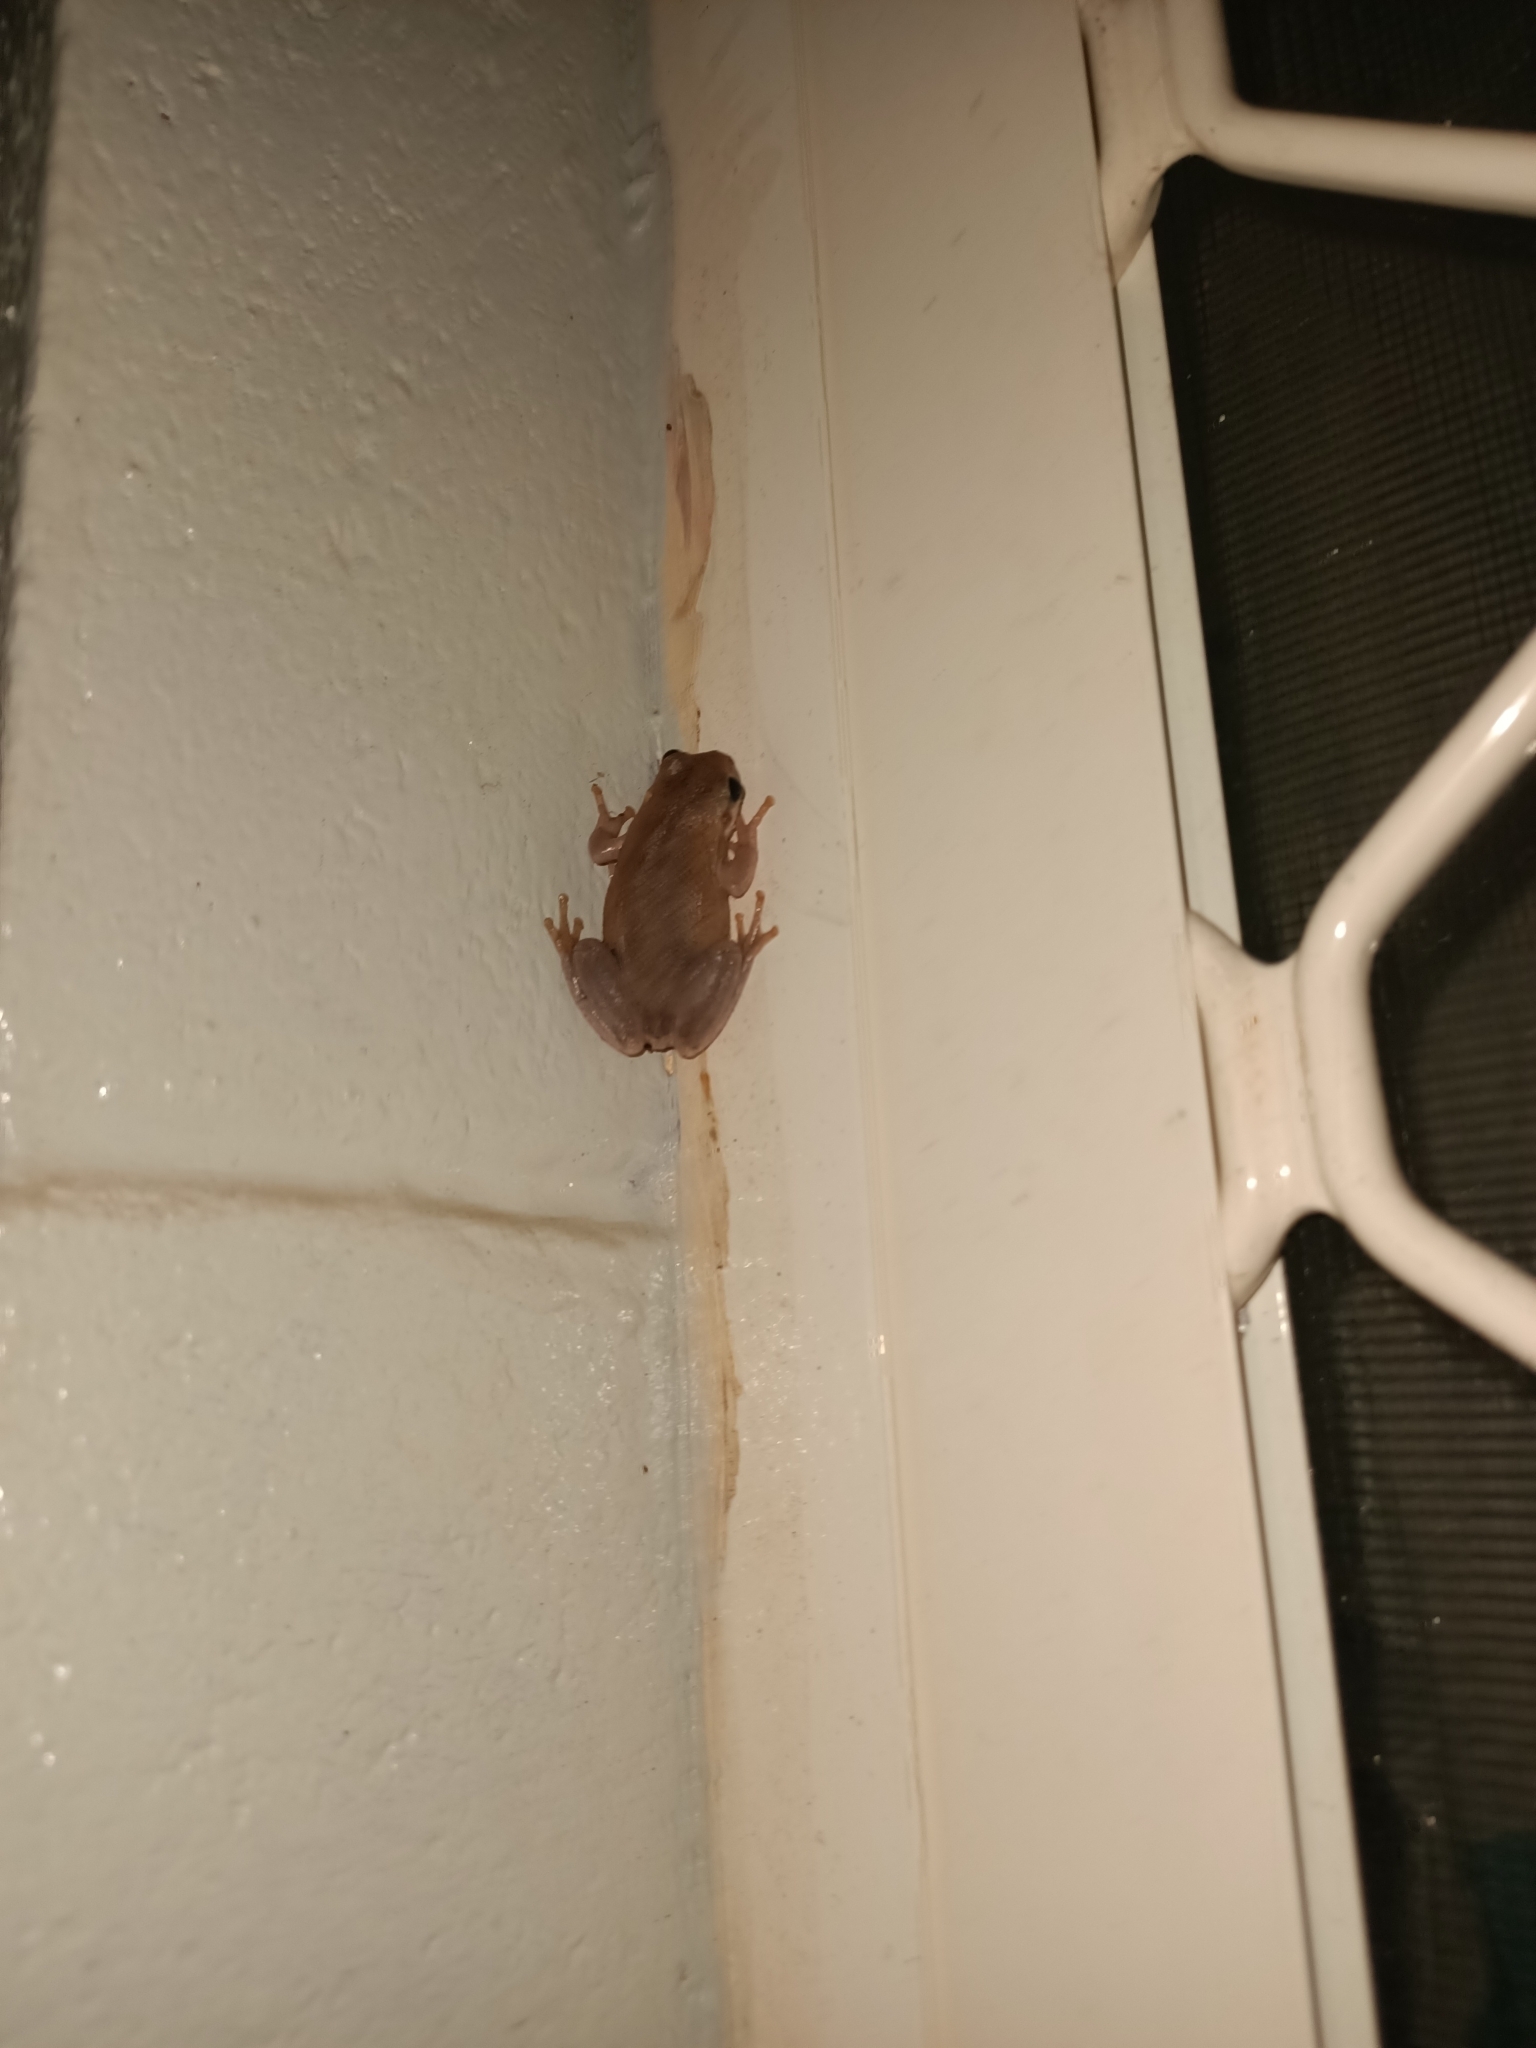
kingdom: Animalia
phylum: Chordata
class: Amphibia
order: Anura
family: Pelodryadidae
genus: Litoria
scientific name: Litoria rubella
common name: Desert tree frog
